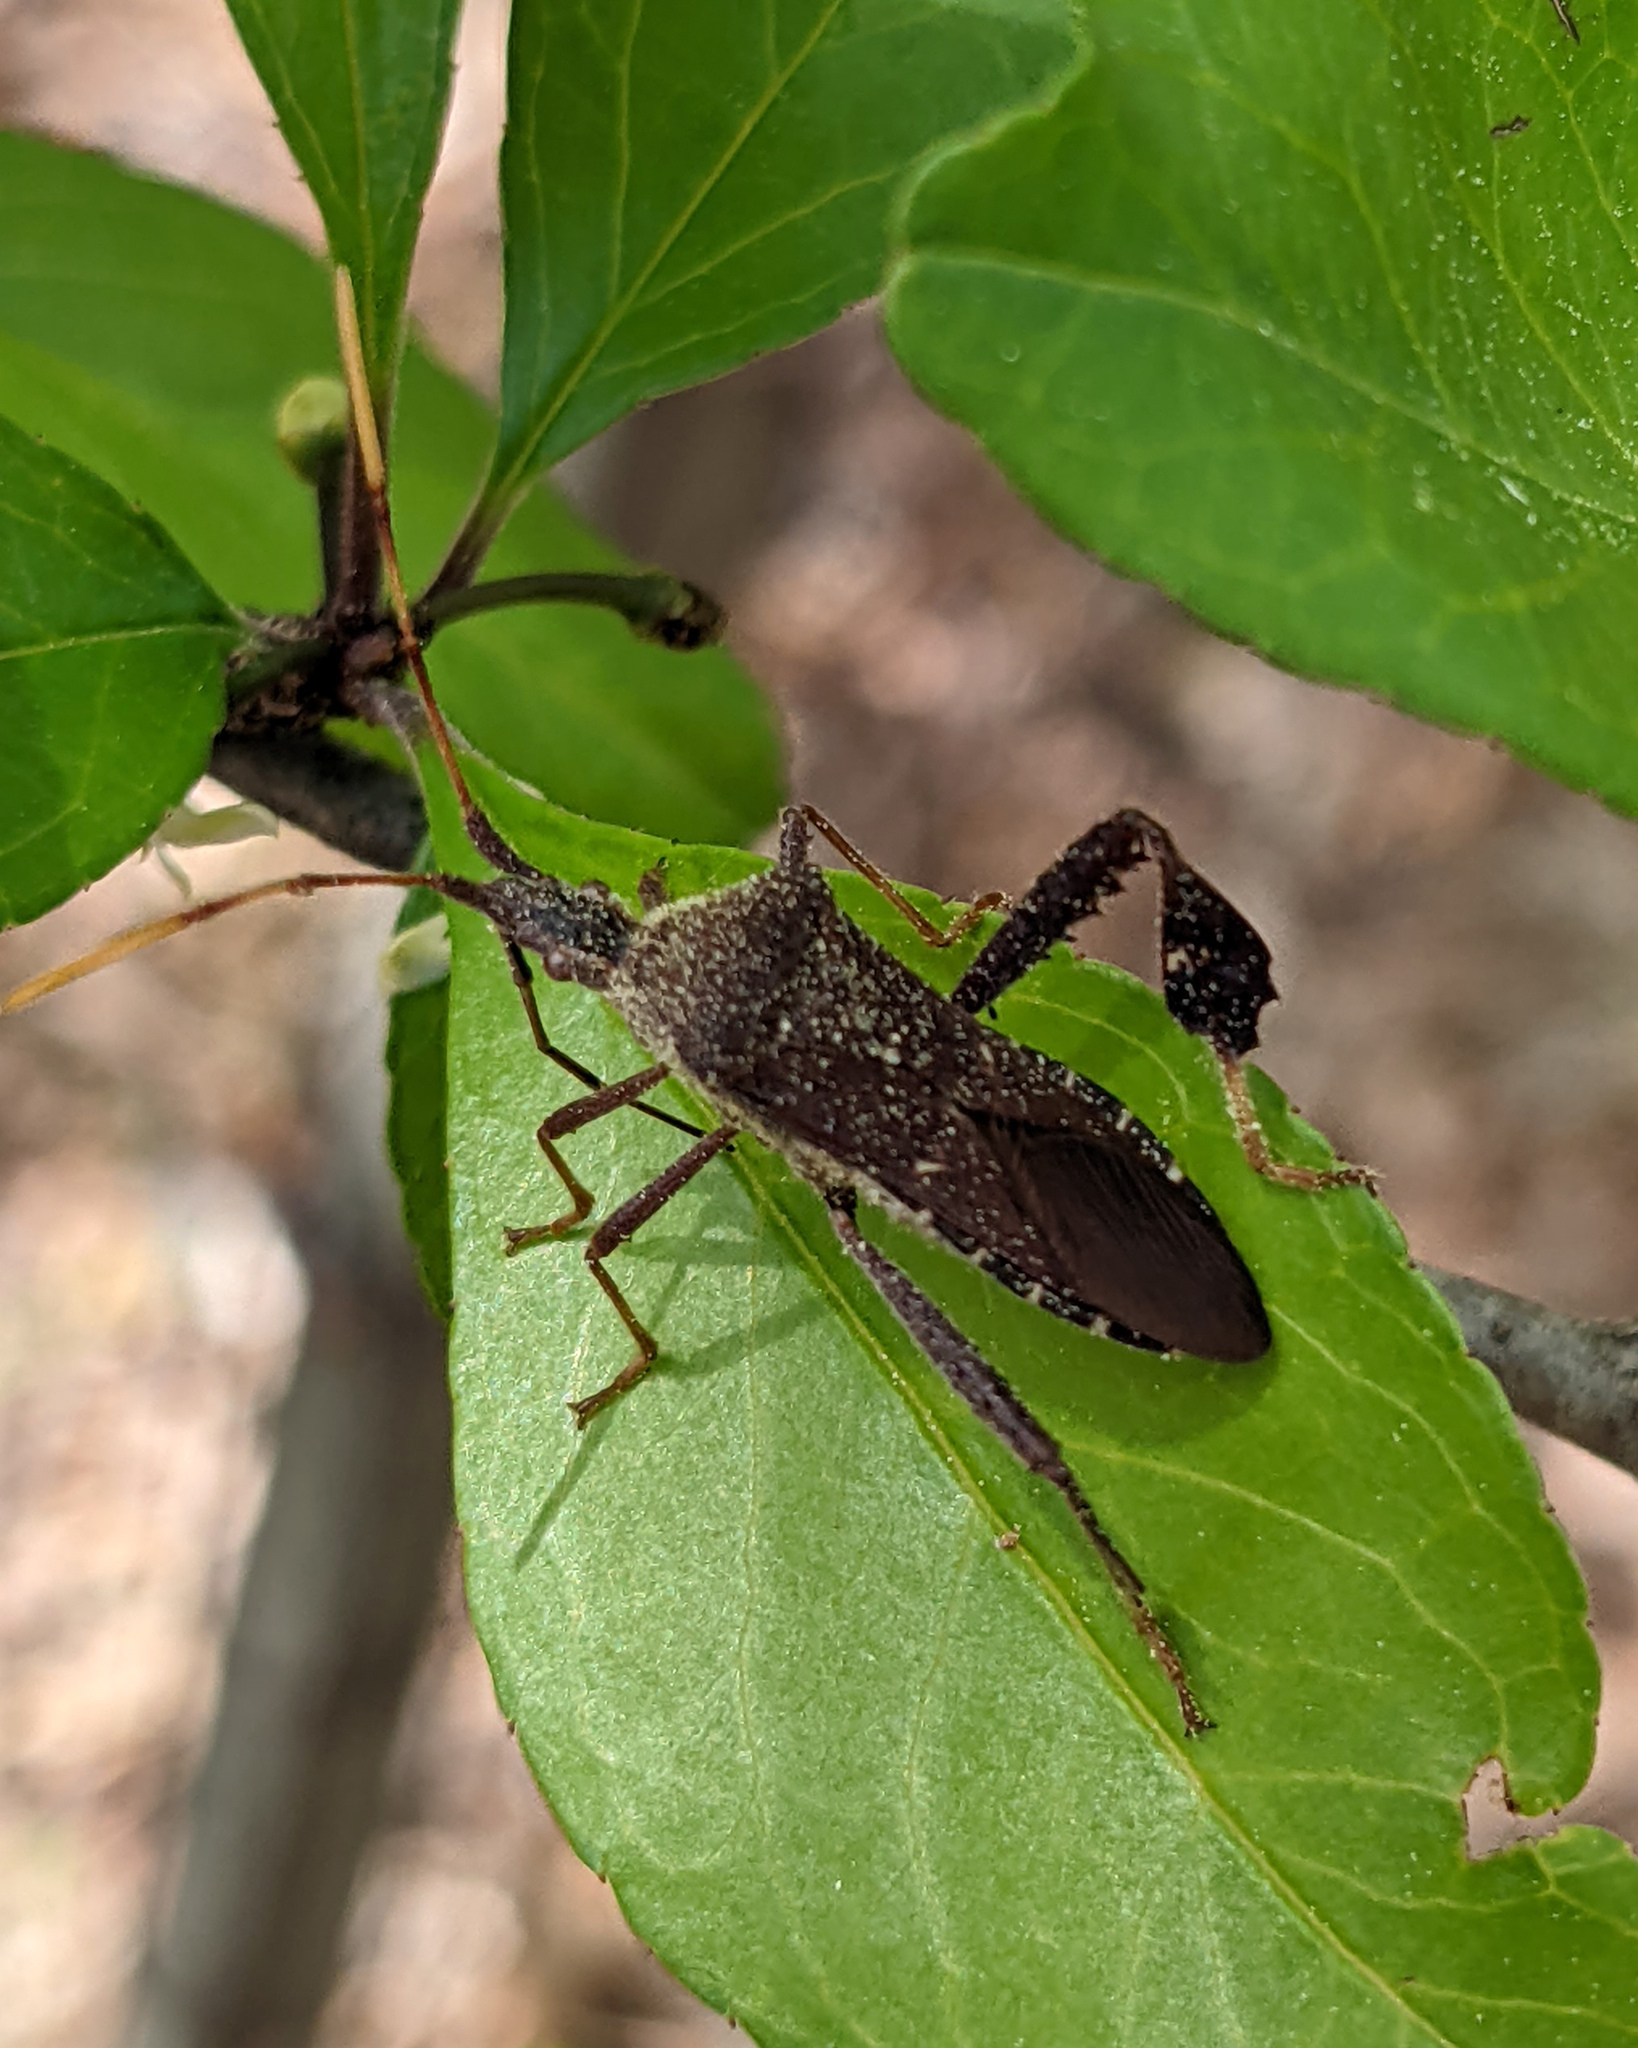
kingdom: Animalia
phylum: Arthropoda
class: Insecta
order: Hemiptera
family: Coreidae
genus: Leptoglossus
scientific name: Leptoglossus oppositus
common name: Northern leaf-footed bug
